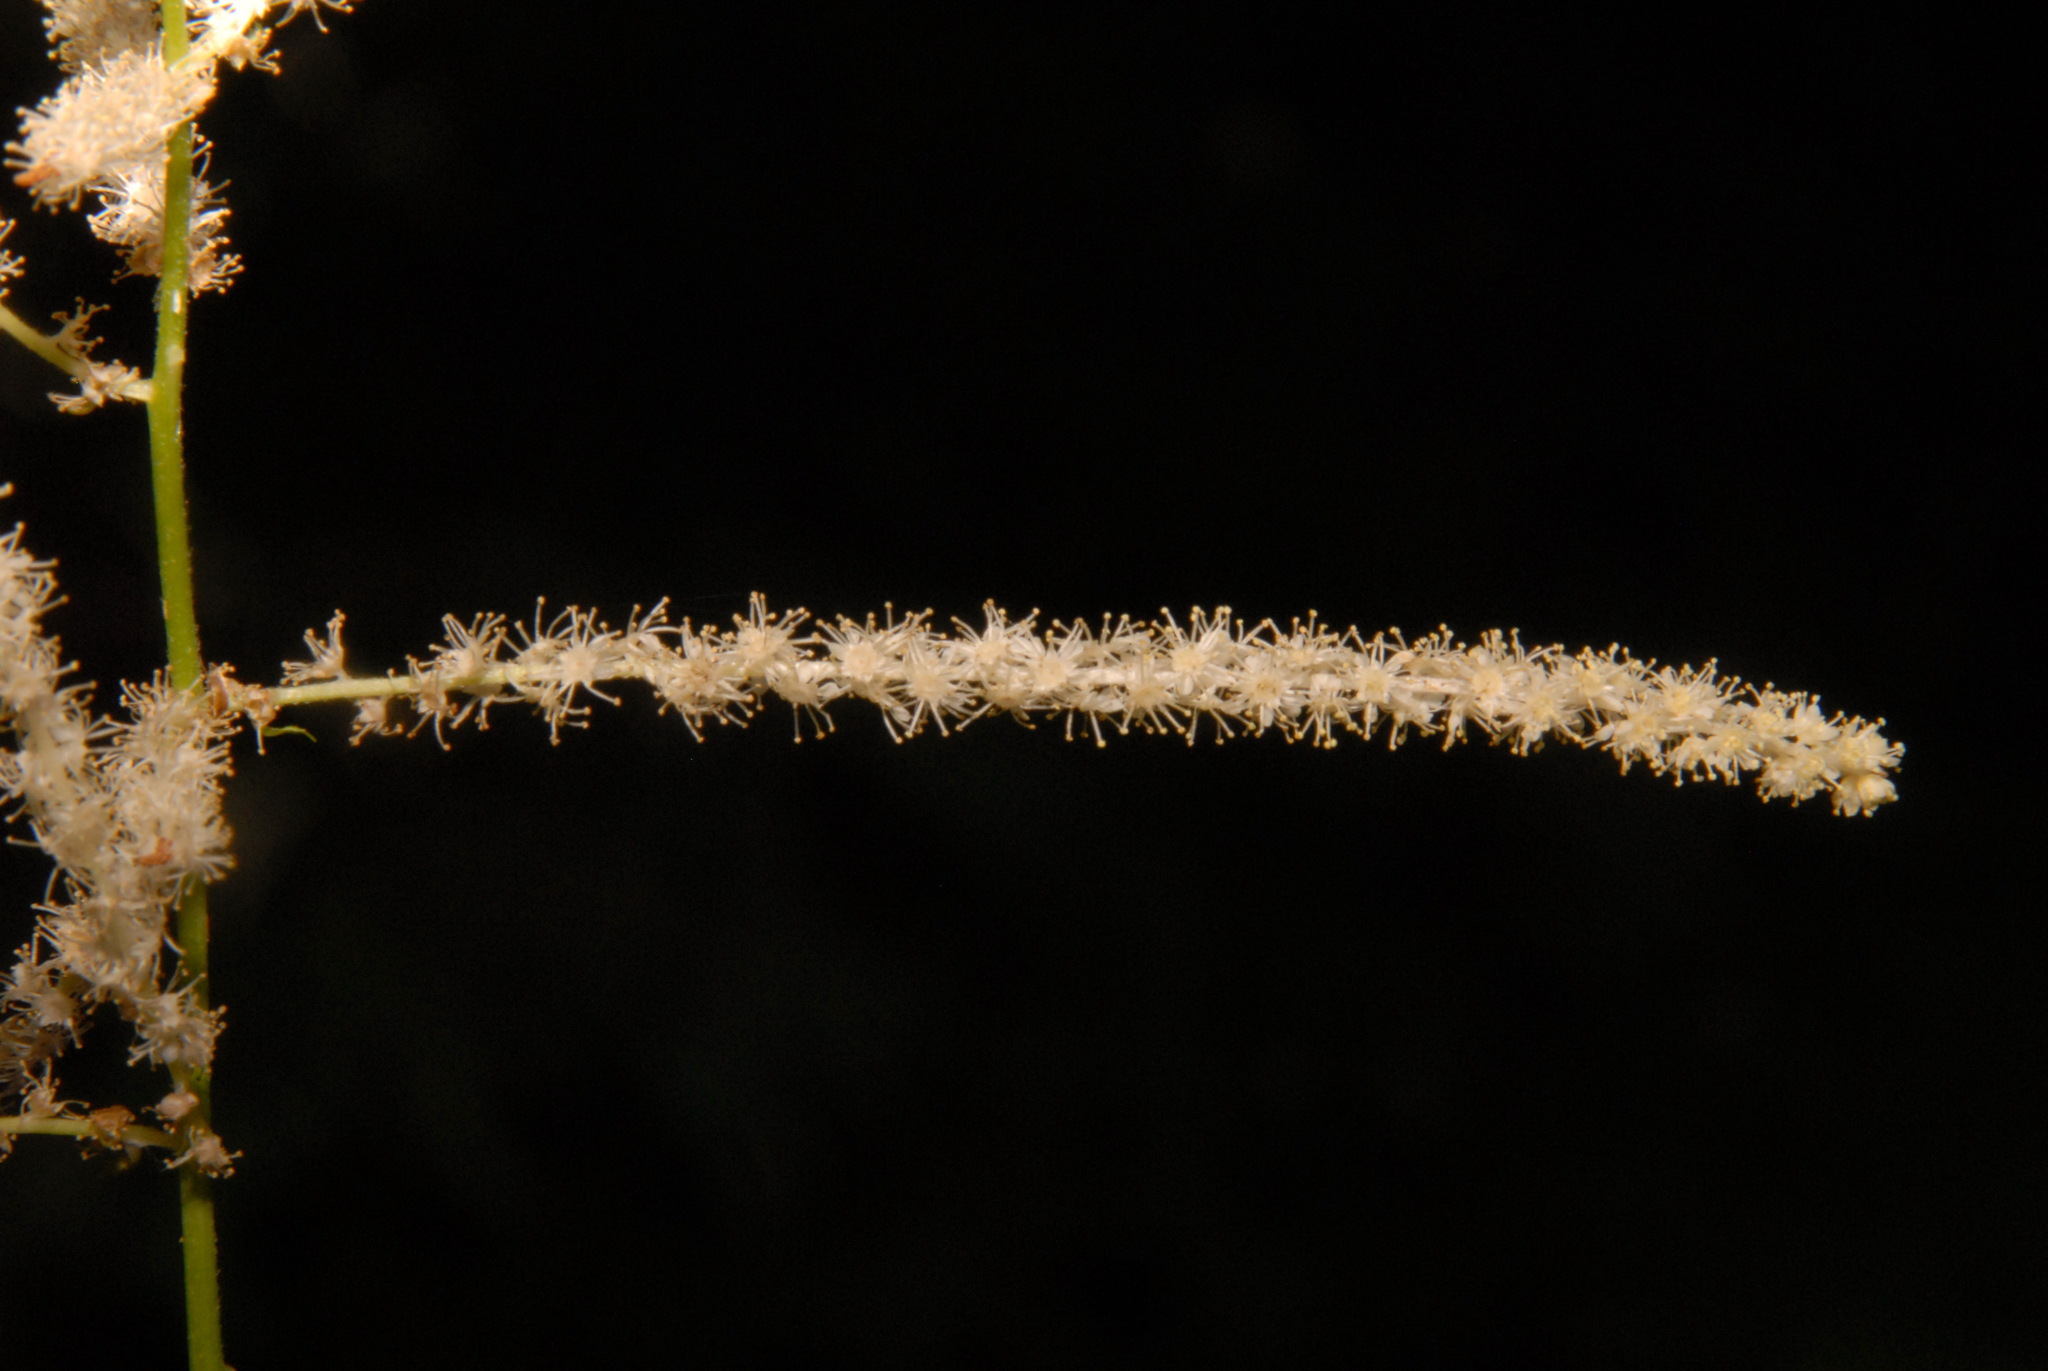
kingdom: Plantae
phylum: Tracheophyta
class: Magnoliopsida
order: Rosales
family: Rosaceae
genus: Aruncus
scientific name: Aruncus dioicus
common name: Buck's-beard
